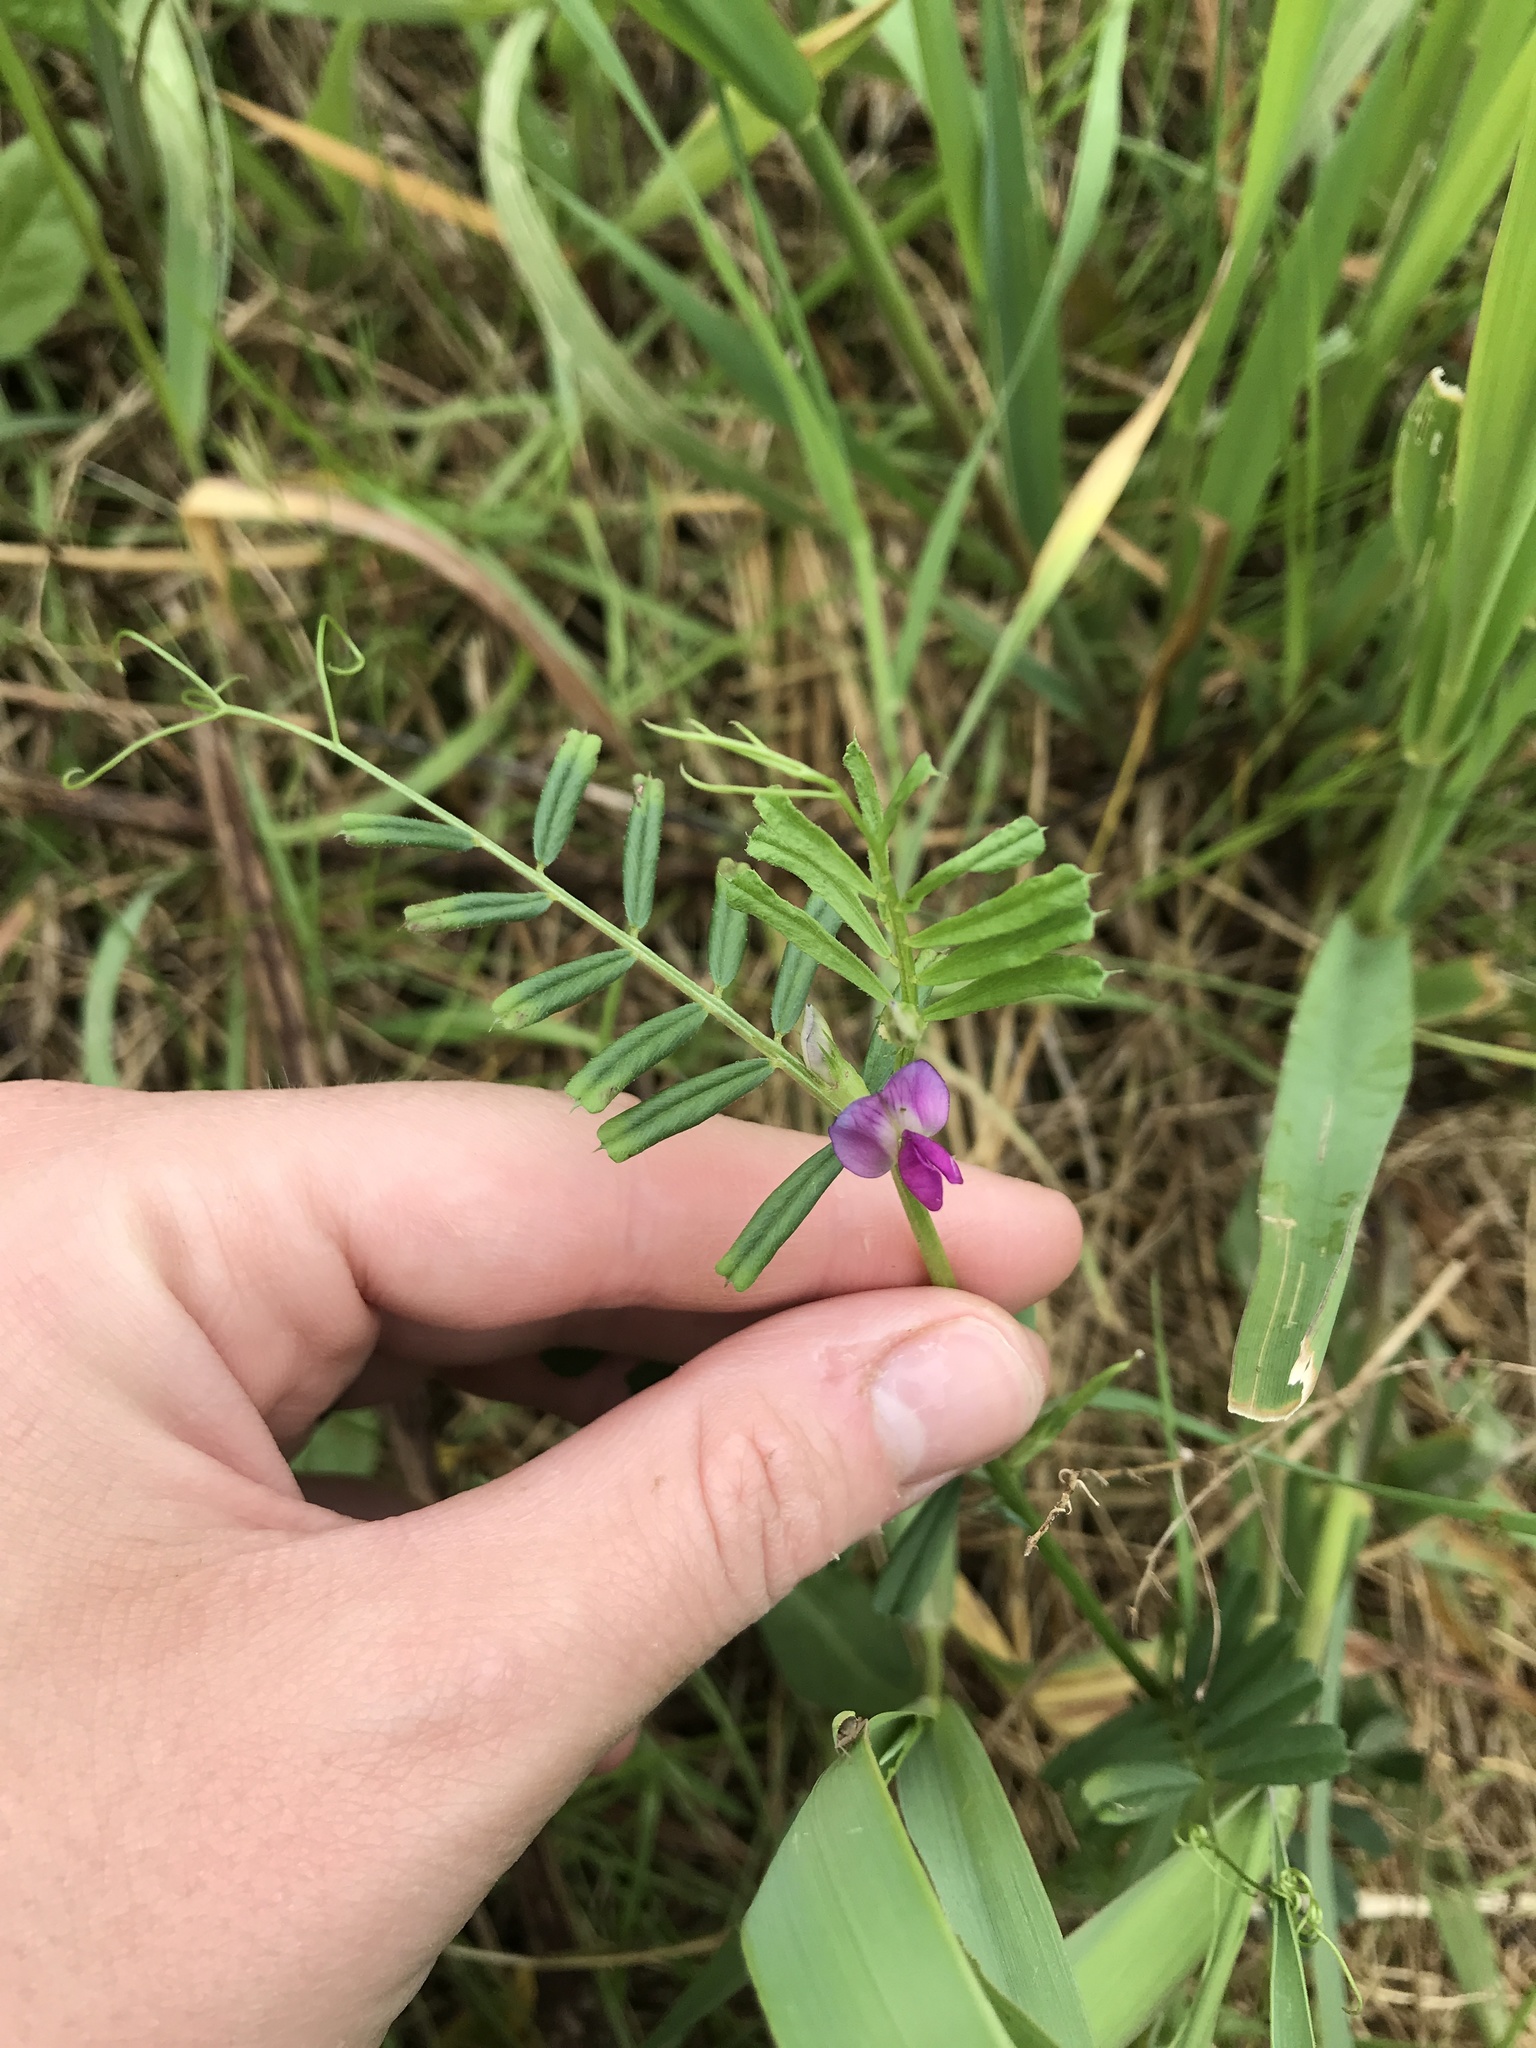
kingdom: Plantae
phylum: Tracheophyta
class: Magnoliopsida
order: Fabales
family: Fabaceae
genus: Vicia
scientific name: Vicia sativa
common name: Garden vetch
